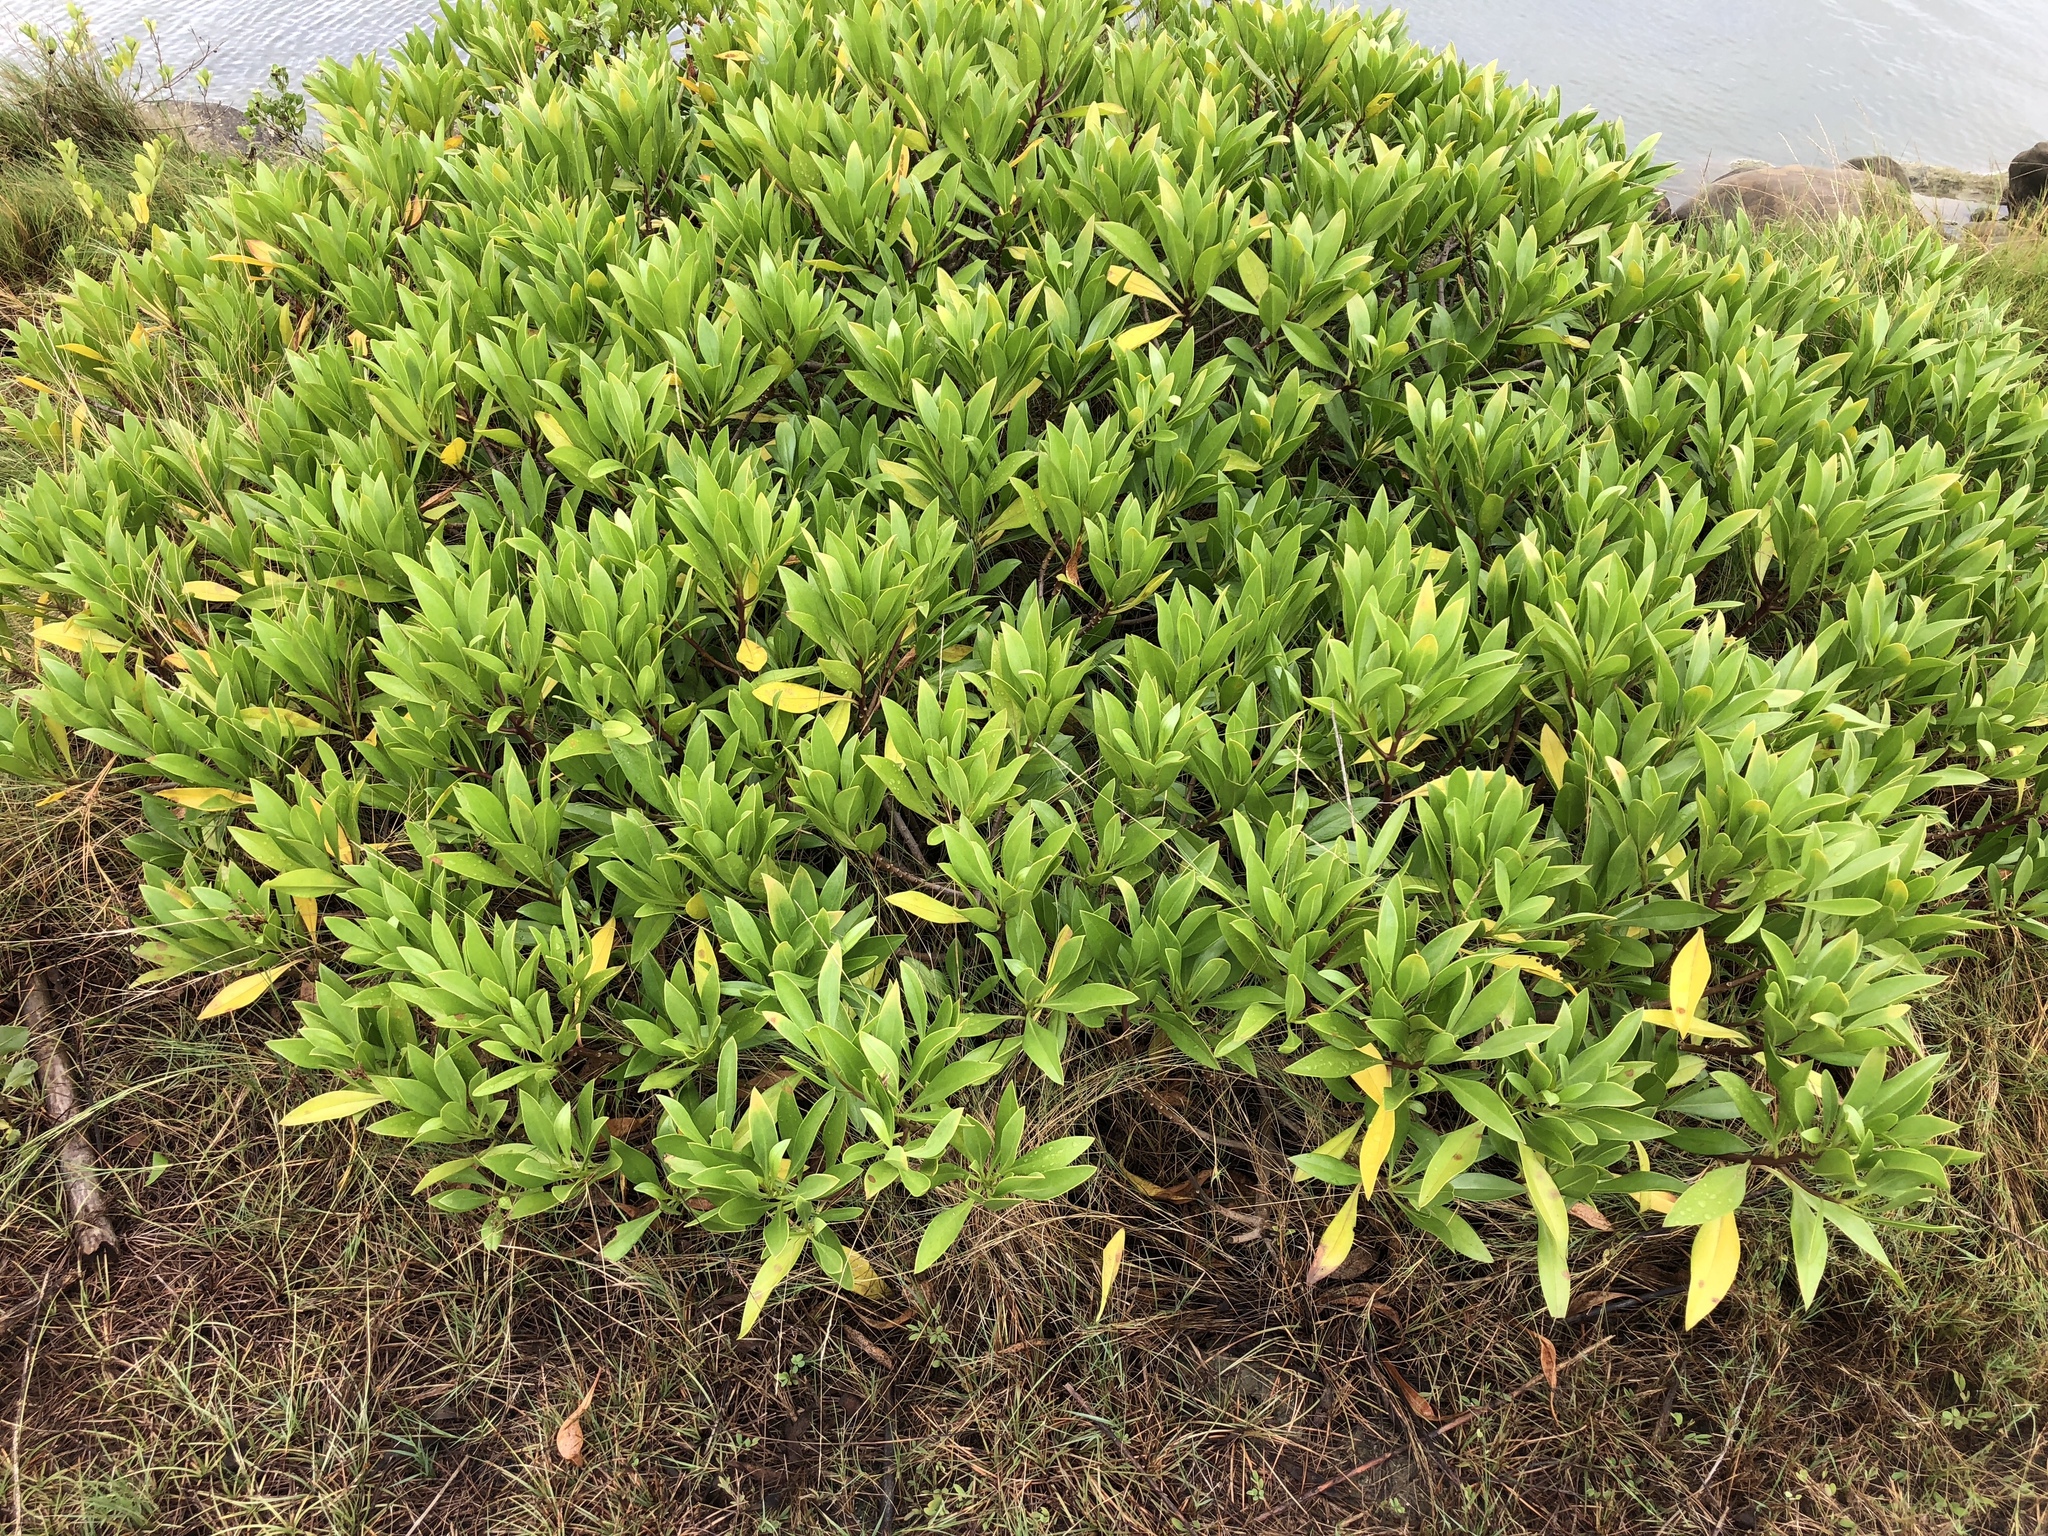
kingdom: Plantae
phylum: Tracheophyta
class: Magnoliopsida
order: Lamiales
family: Scrophulariaceae
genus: Myoporum
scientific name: Myoporum bontioides
